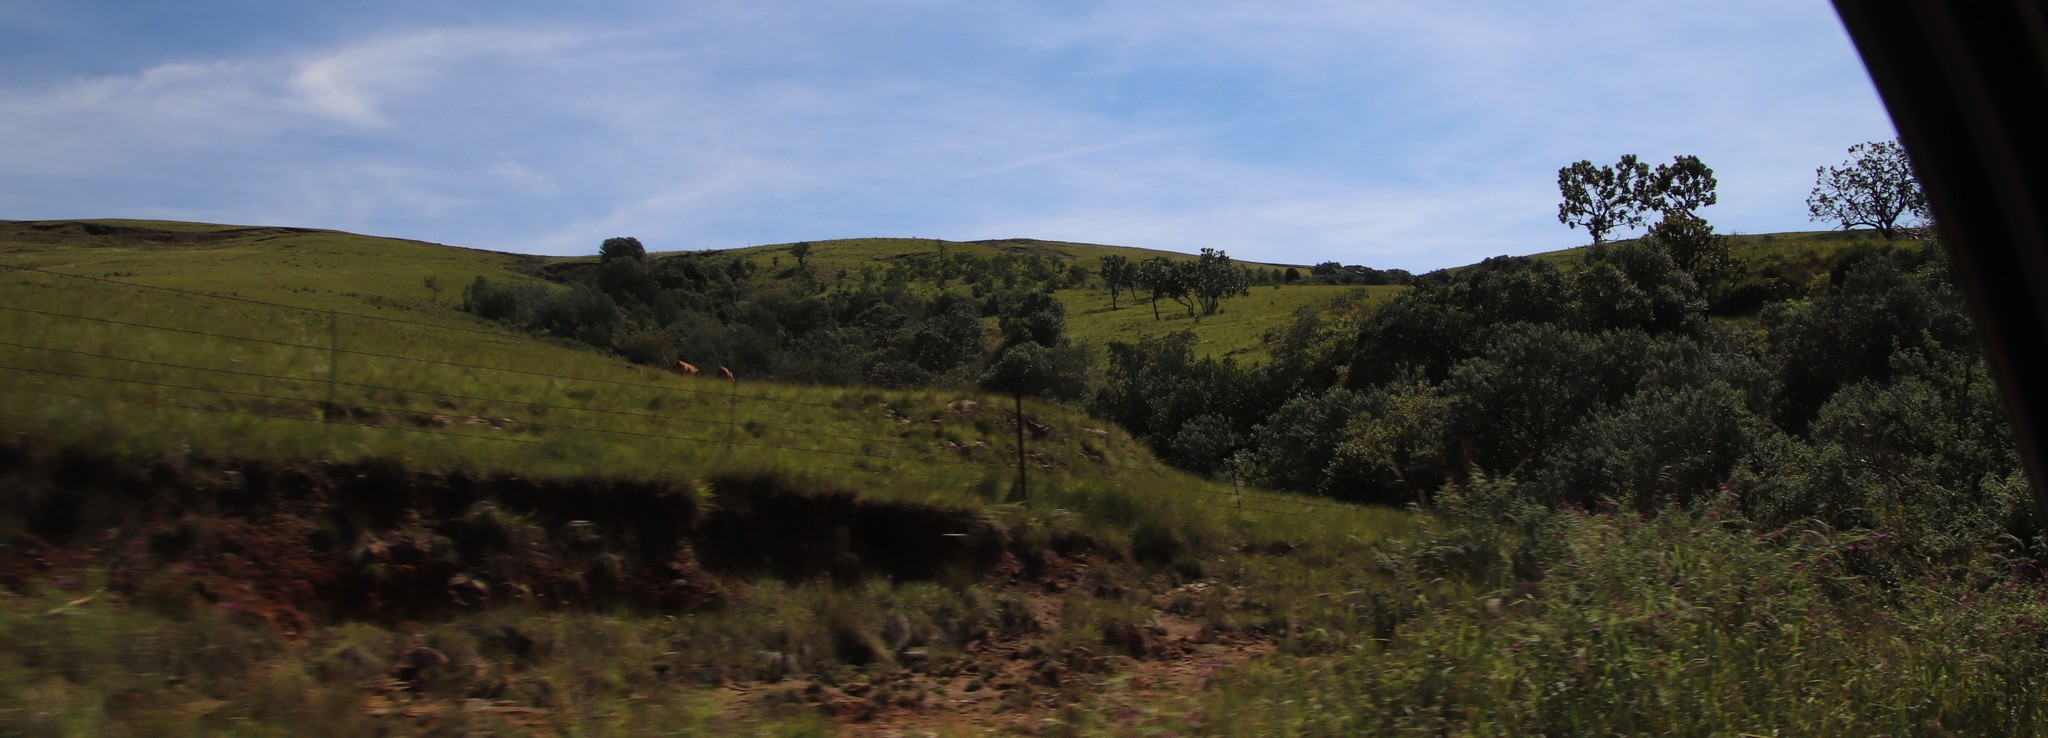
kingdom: Plantae
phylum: Tracheophyta
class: Magnoliopsida
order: Proteales
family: Proteaceae
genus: Protea
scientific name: Protea roupelliae
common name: Silver sugarbush
